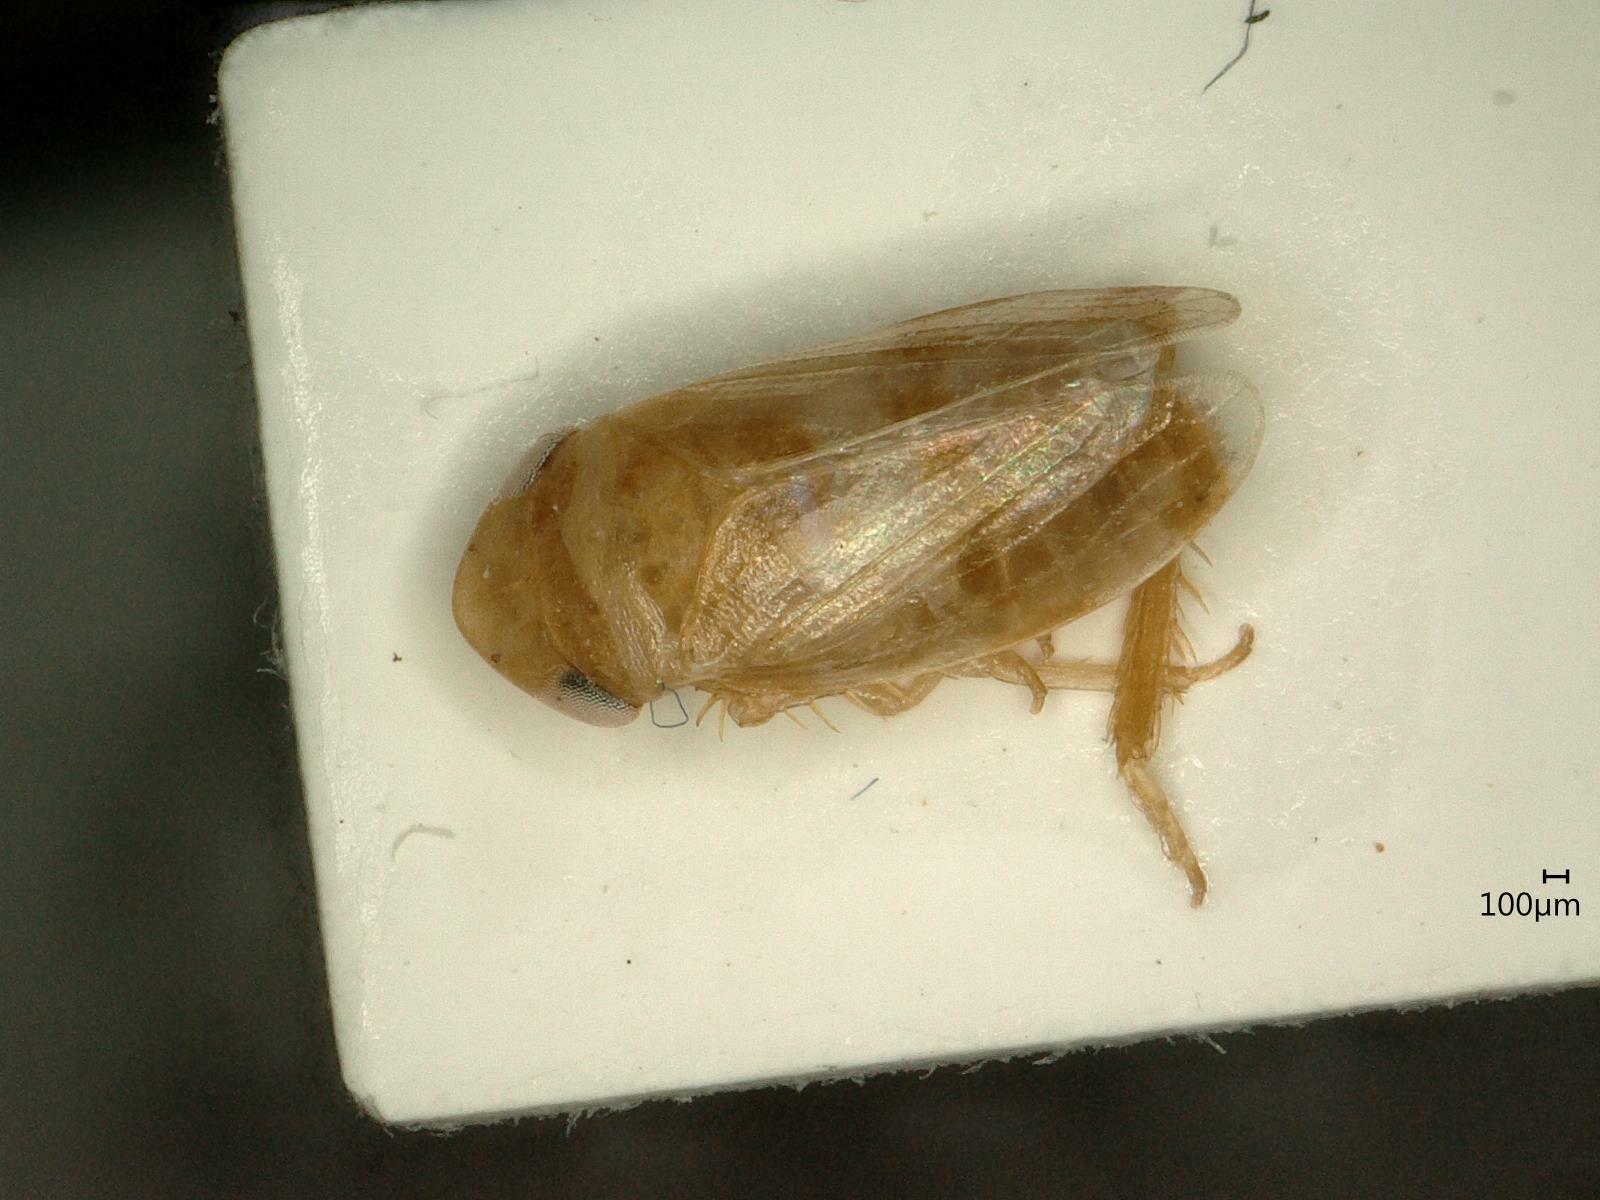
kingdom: Animalia
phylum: Arthropoda
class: Insecta
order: Hemiptera
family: Cicadellidae
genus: Anoscopus
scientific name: Anoscopus albifrons
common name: Leafhopper
